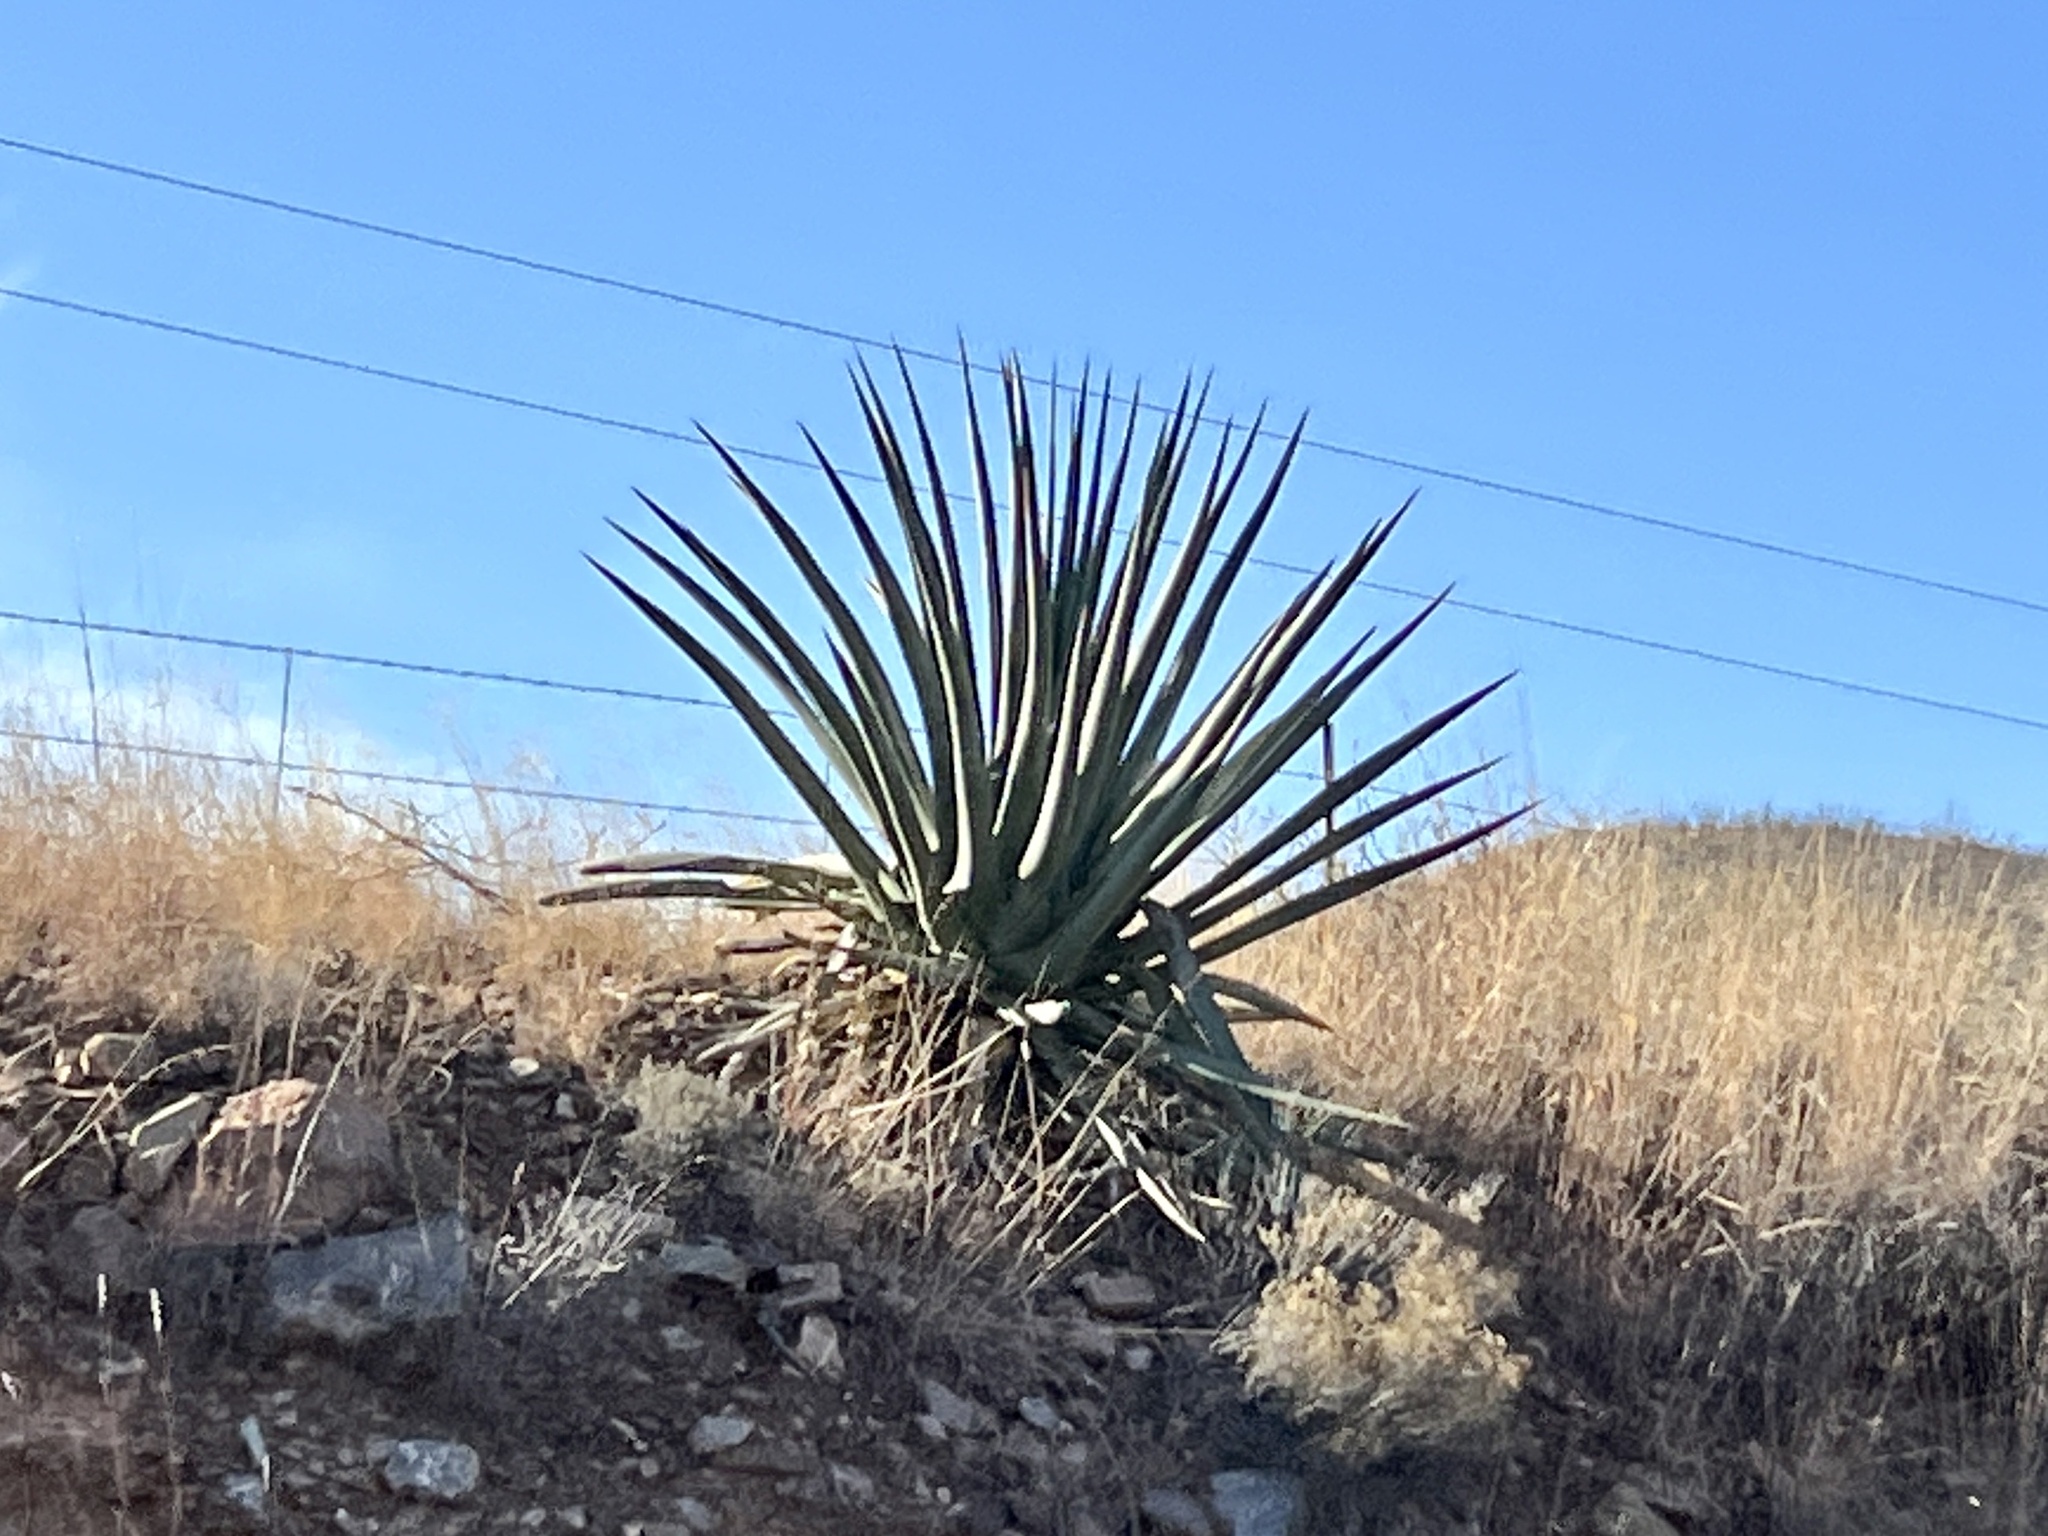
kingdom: Plantae
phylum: Tracheophyta
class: Liliopsida
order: Asparagales
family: Asparagaceae
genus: Agave
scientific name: Agave palmeri
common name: Palmer agave
